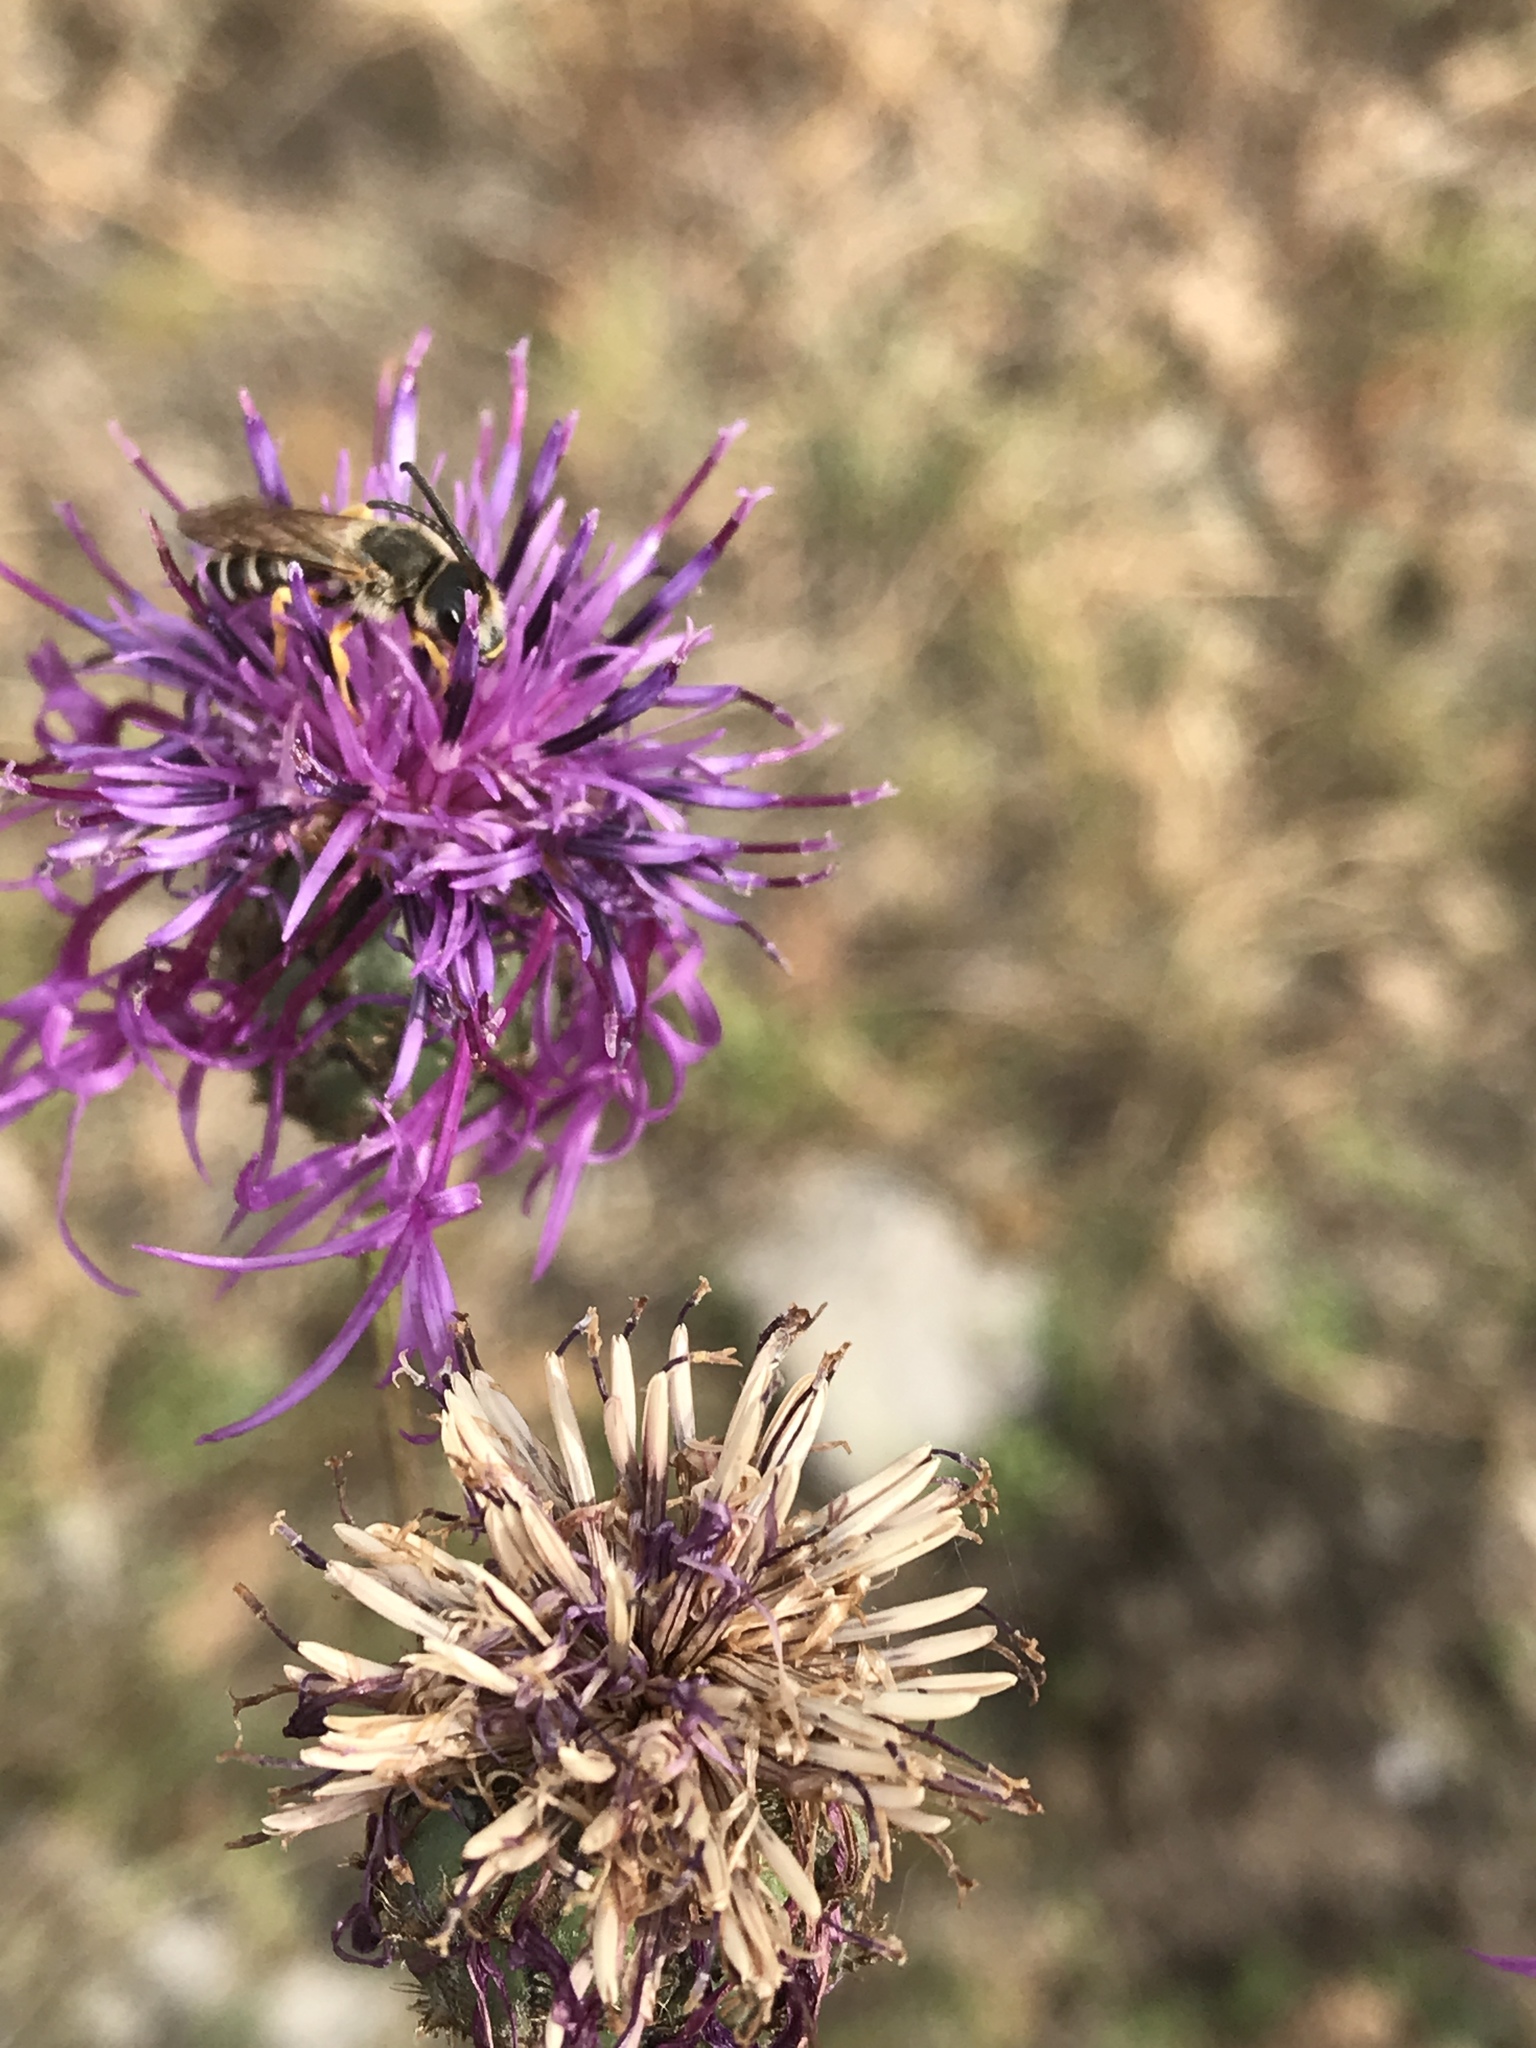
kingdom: Animalia
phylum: Arthropoda
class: Insecta
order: Hymenoptera
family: Halictidae
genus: Halictus
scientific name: Halictus scabiosae
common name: Great banded furrow bee
